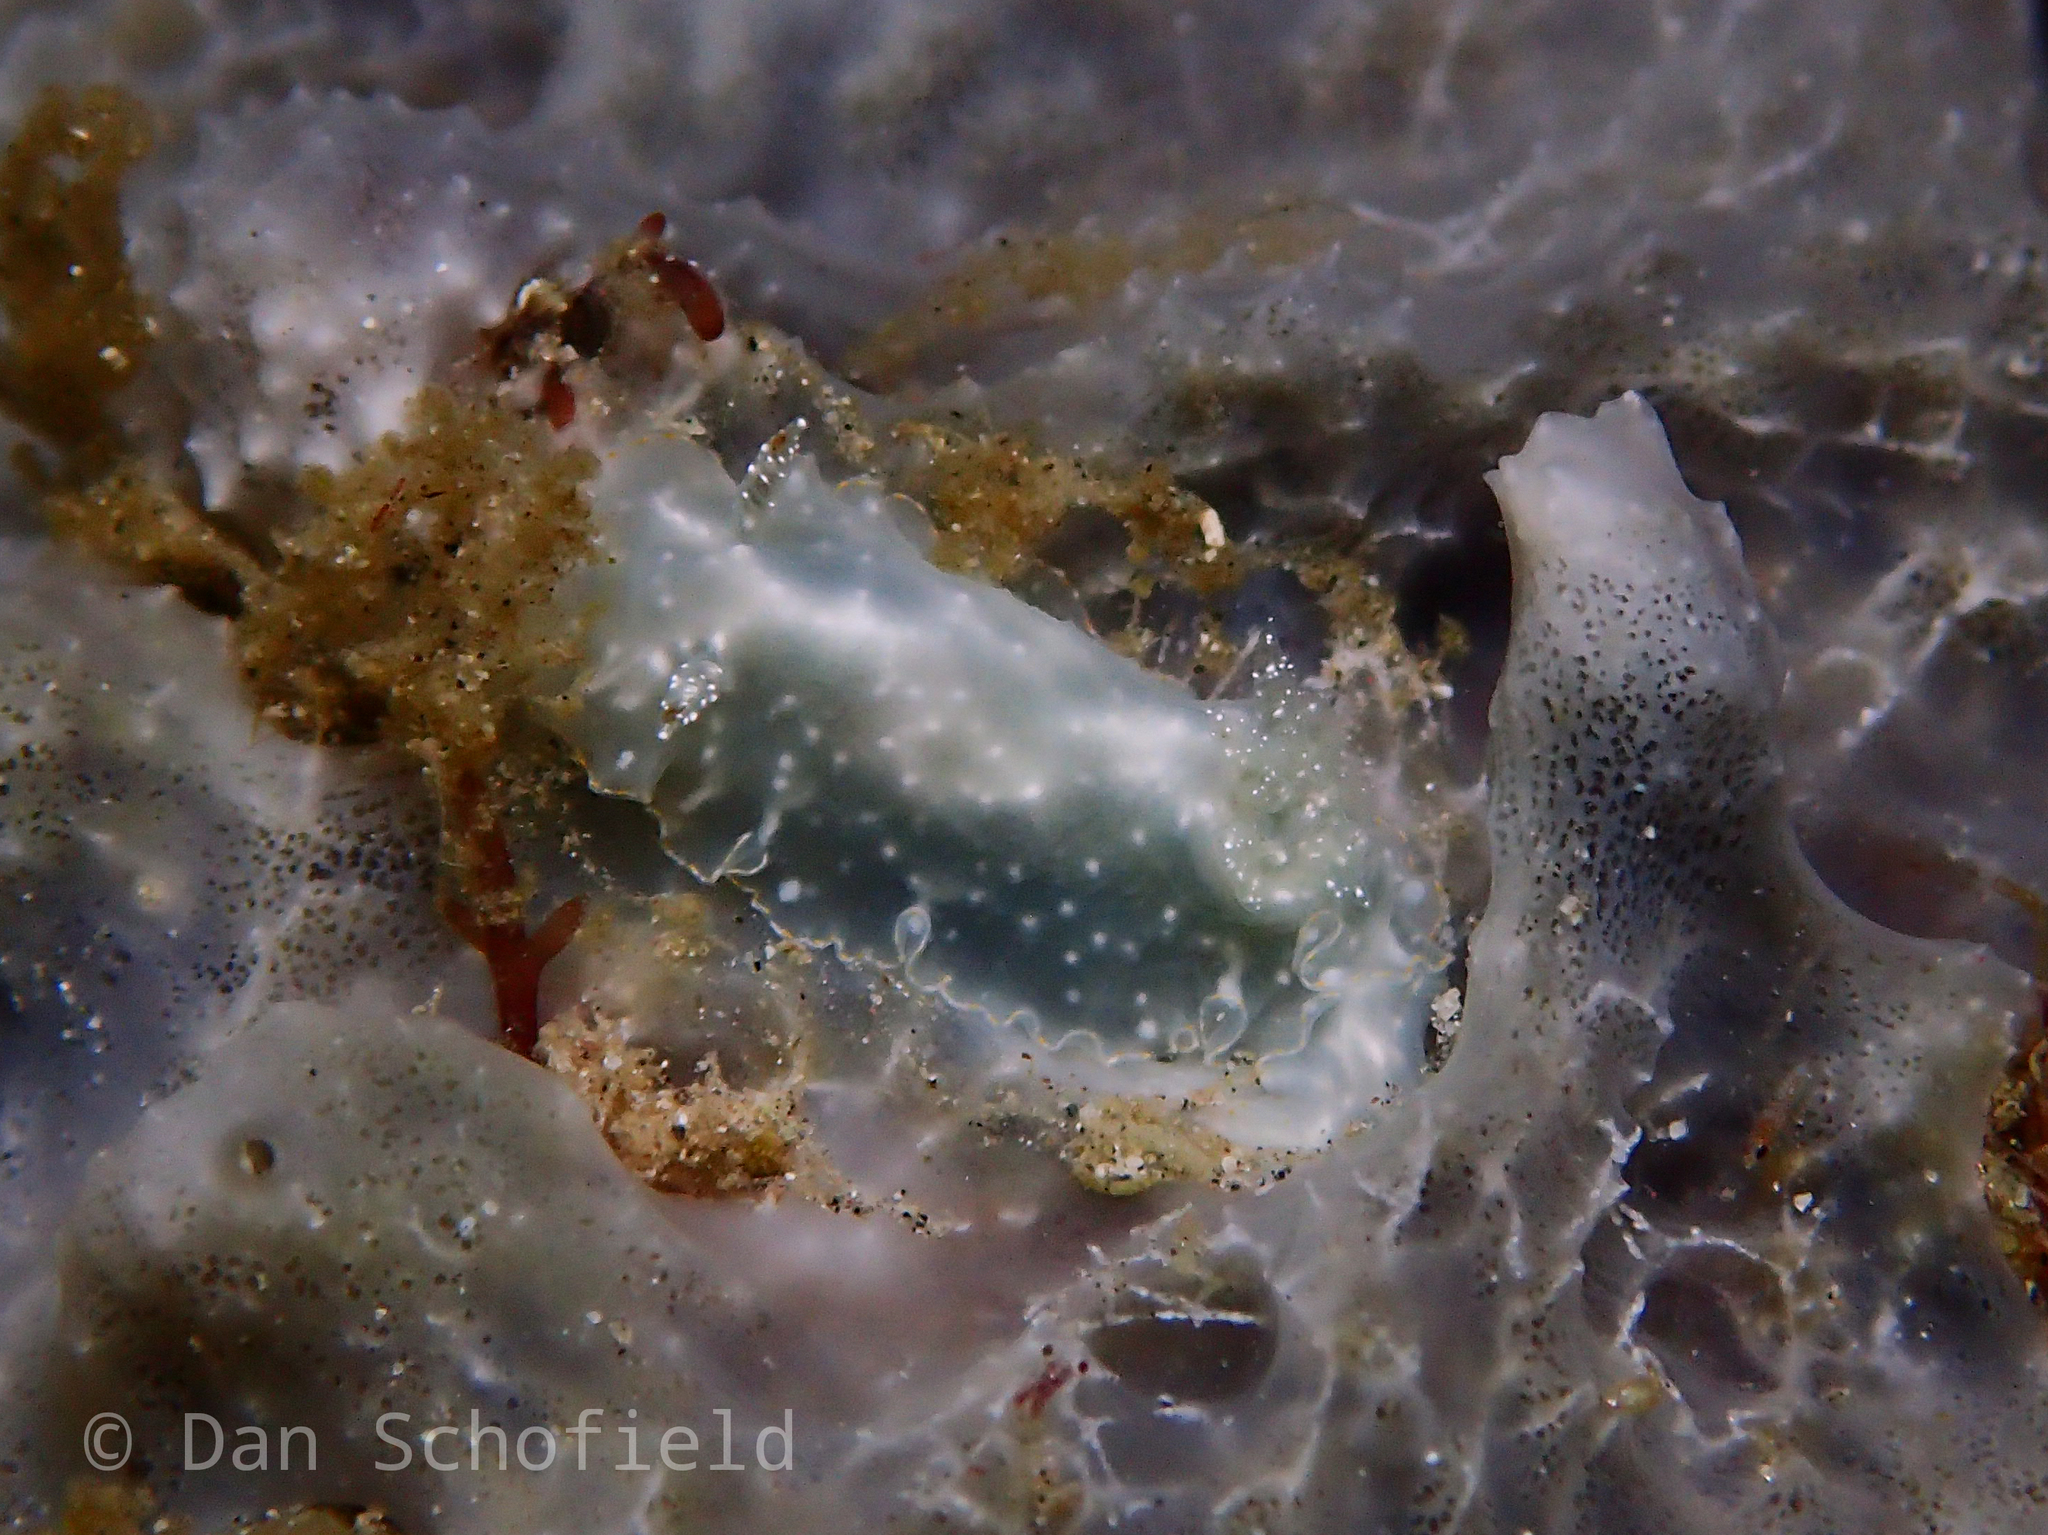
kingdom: Animalia
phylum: Mollusca
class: Gastropoda
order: Nudibranchia
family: Chromodorididae
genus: Chromodoris
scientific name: Chromodoris kalawakan
